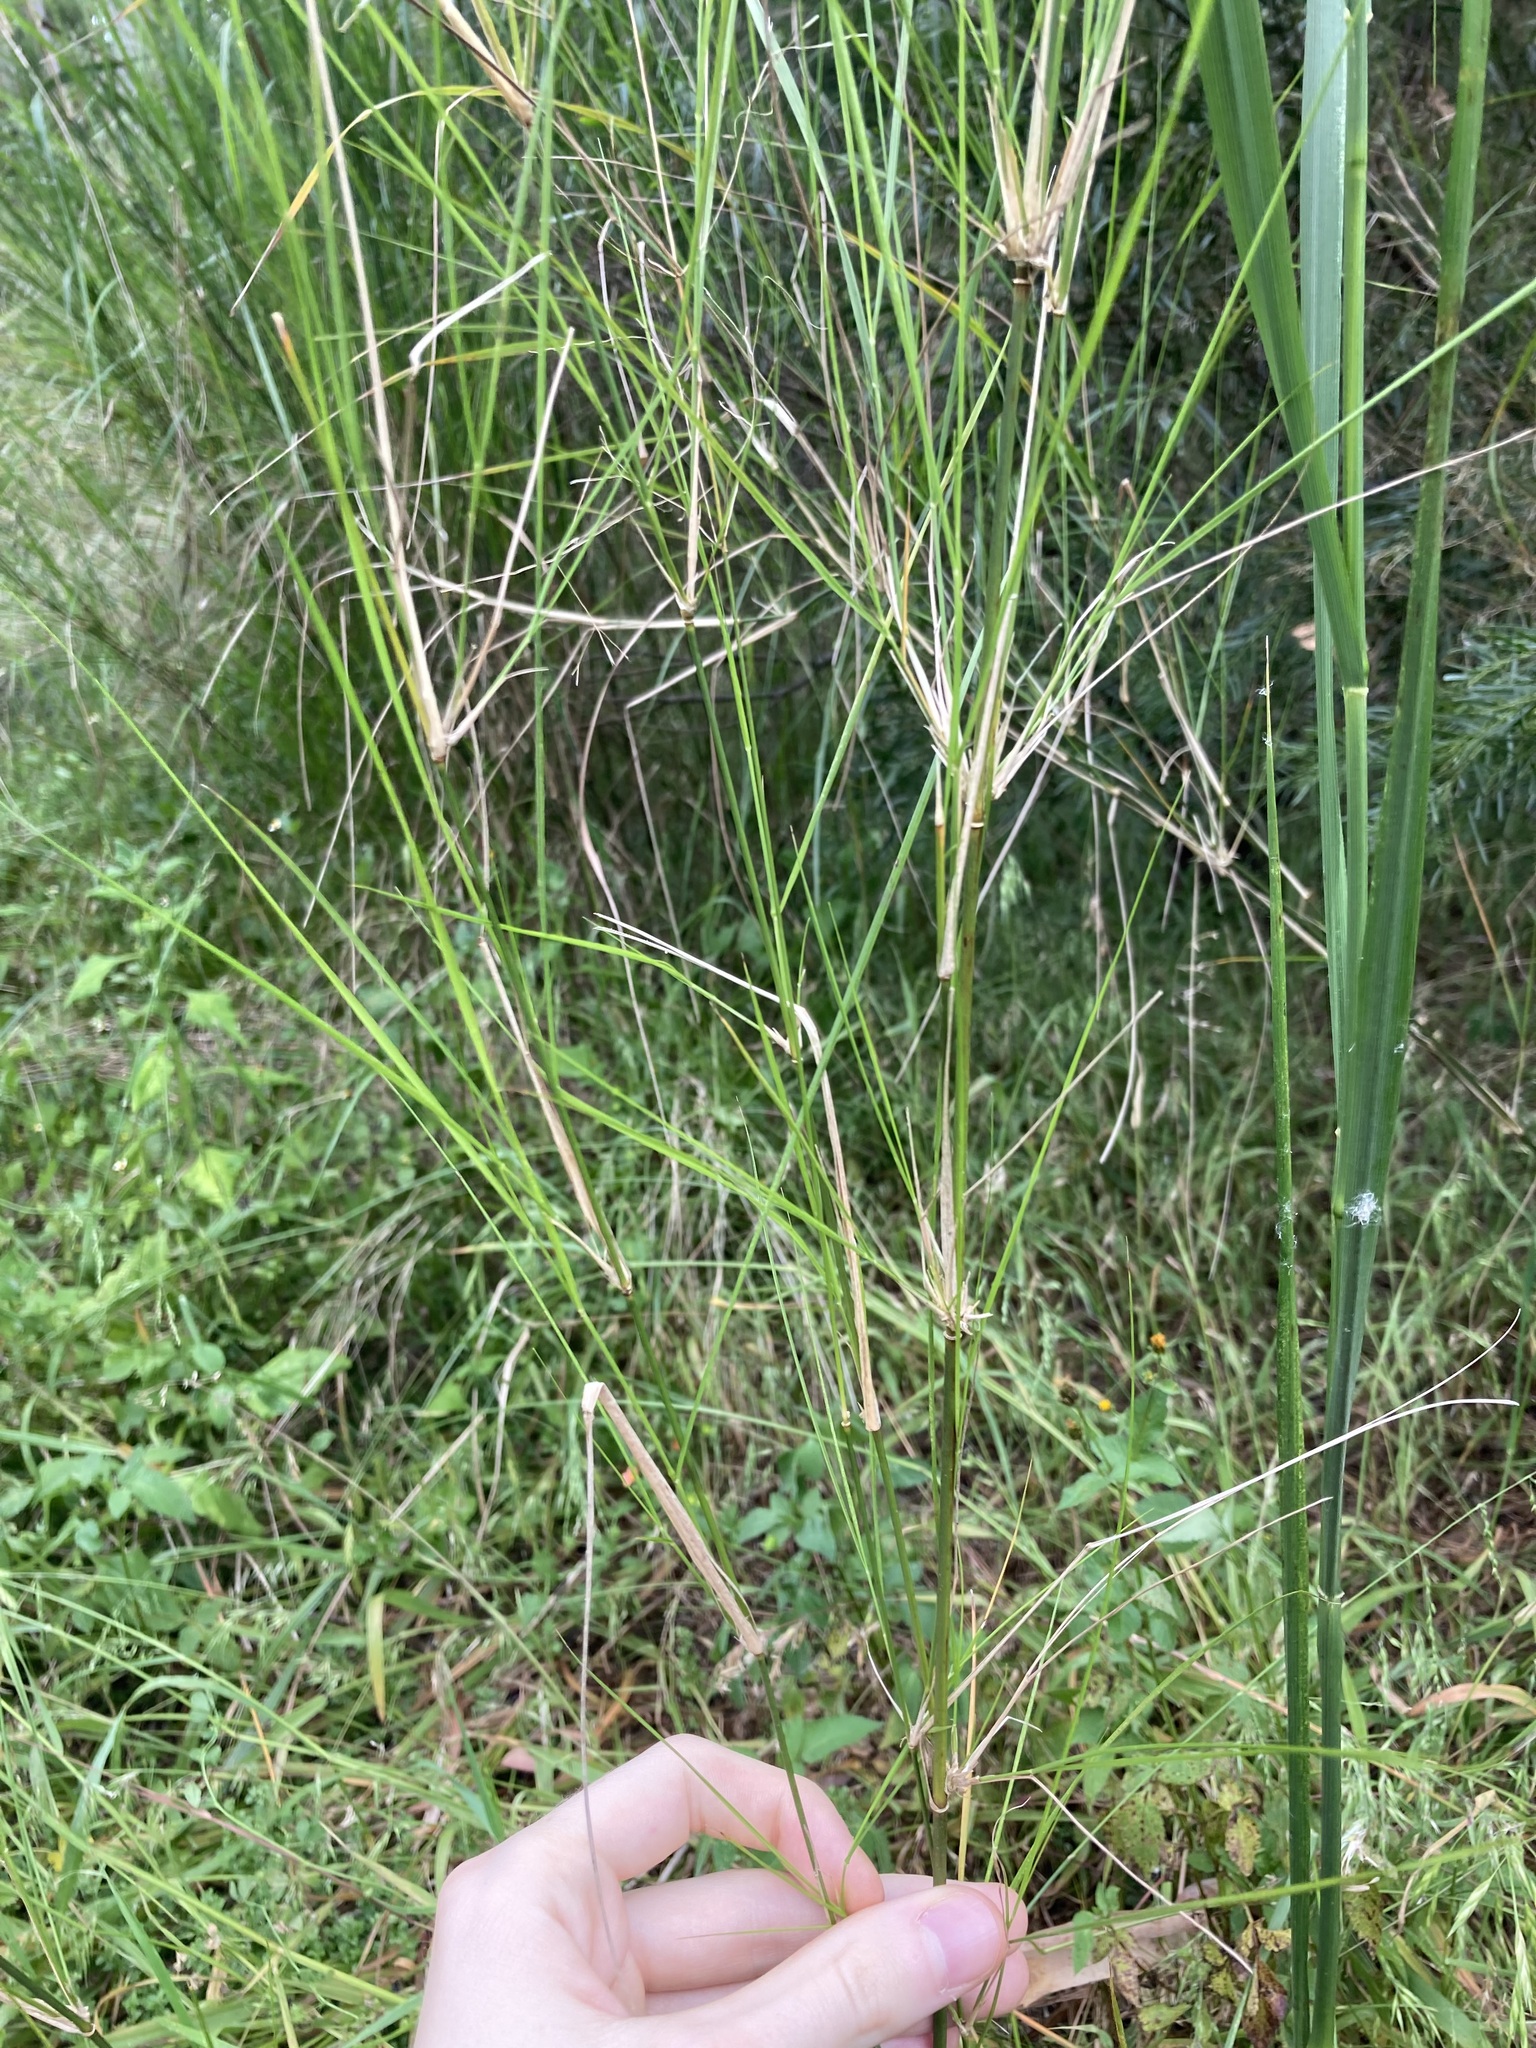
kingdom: Plantae
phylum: Tracheophyta
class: Liliopsida
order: Poales
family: Poaceae
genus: Austrostipa
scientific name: Austrostipa
